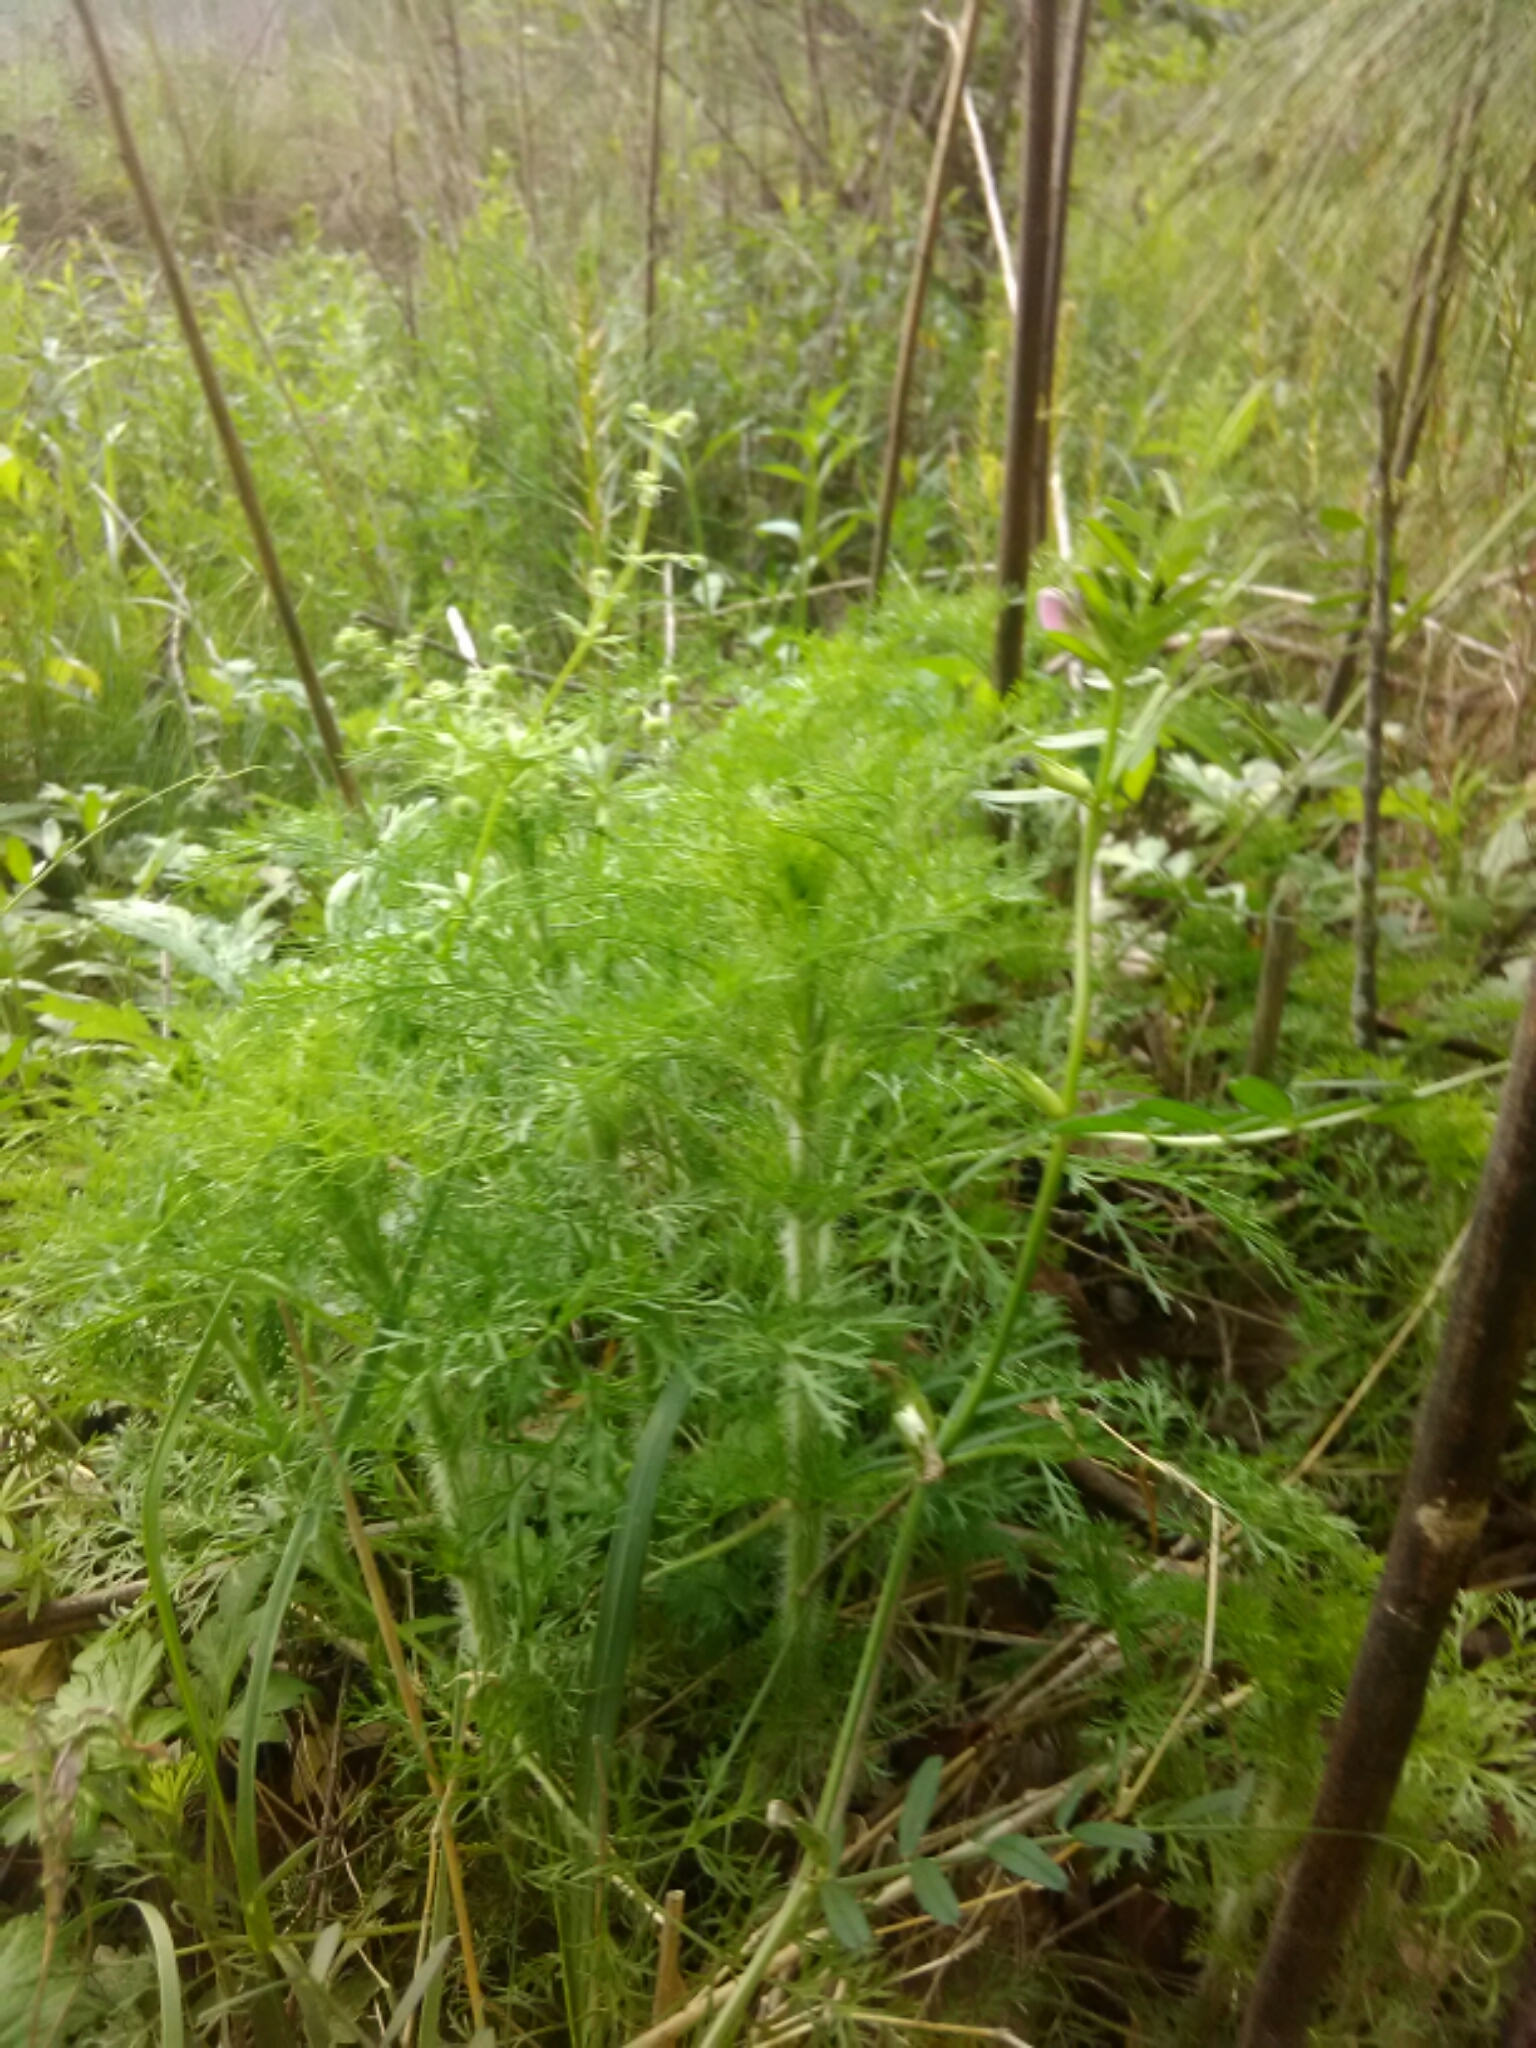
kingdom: Plantae
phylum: Tracheophyta
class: Magnoliopsida
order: Asterales
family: Asteraceae
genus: Eupatorium
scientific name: Eupatorium capillifolium
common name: Dog-fennel
